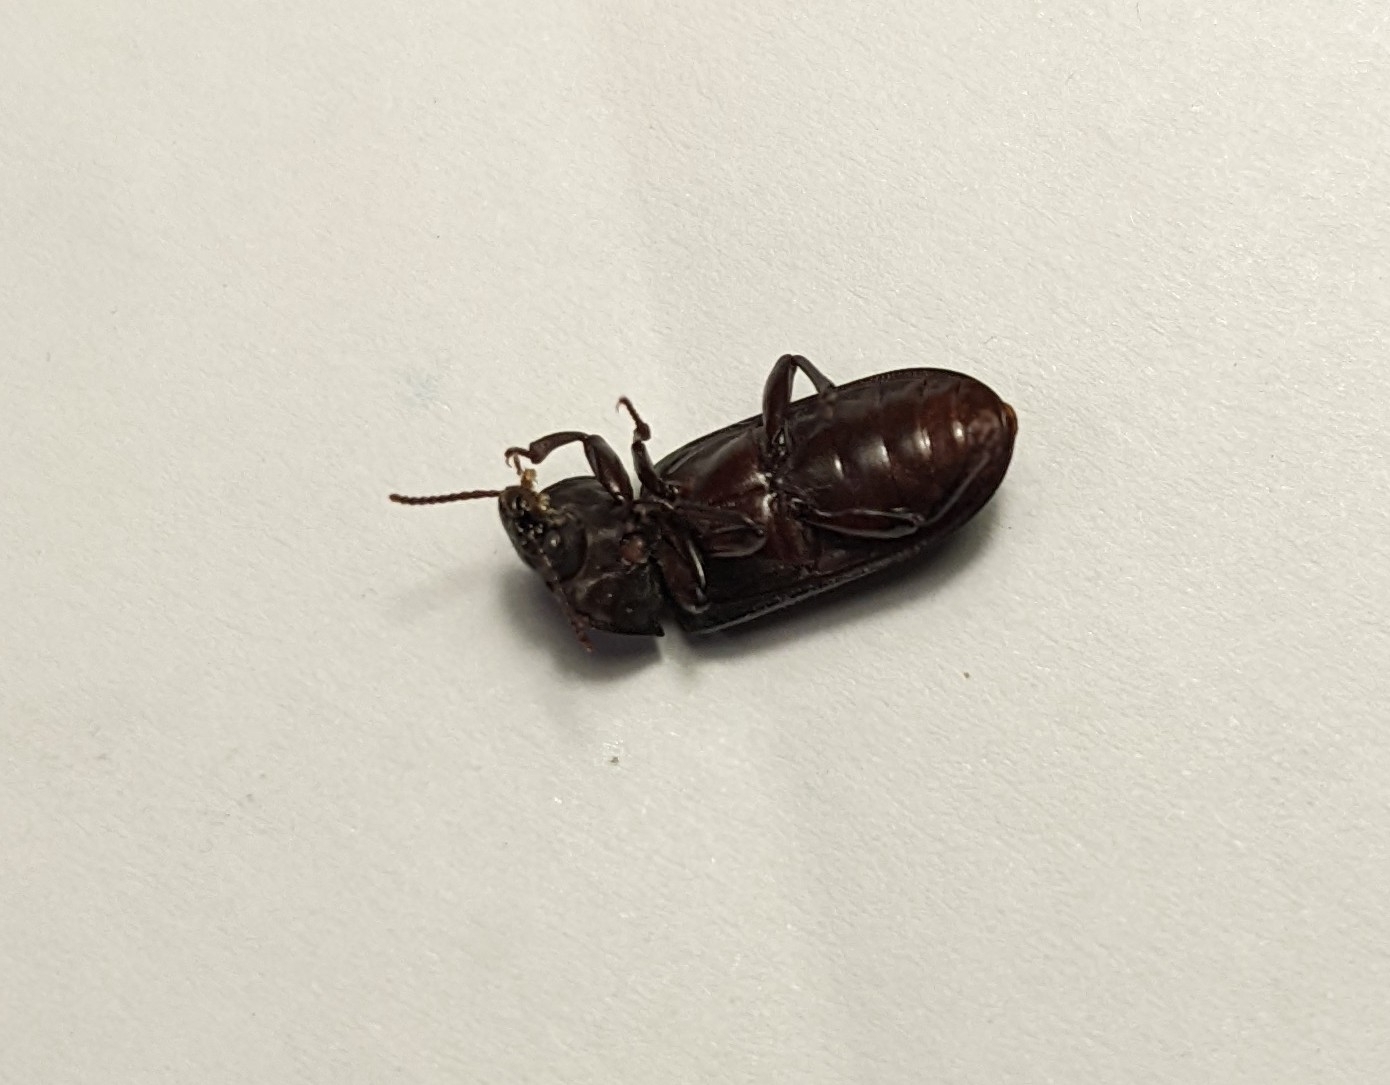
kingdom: Animalia
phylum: Arthropoda
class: Insecta
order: Coleoptera
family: Tenebrionidae
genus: Tenebrio
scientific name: Tenebrio molitor
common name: Hardback beetle
